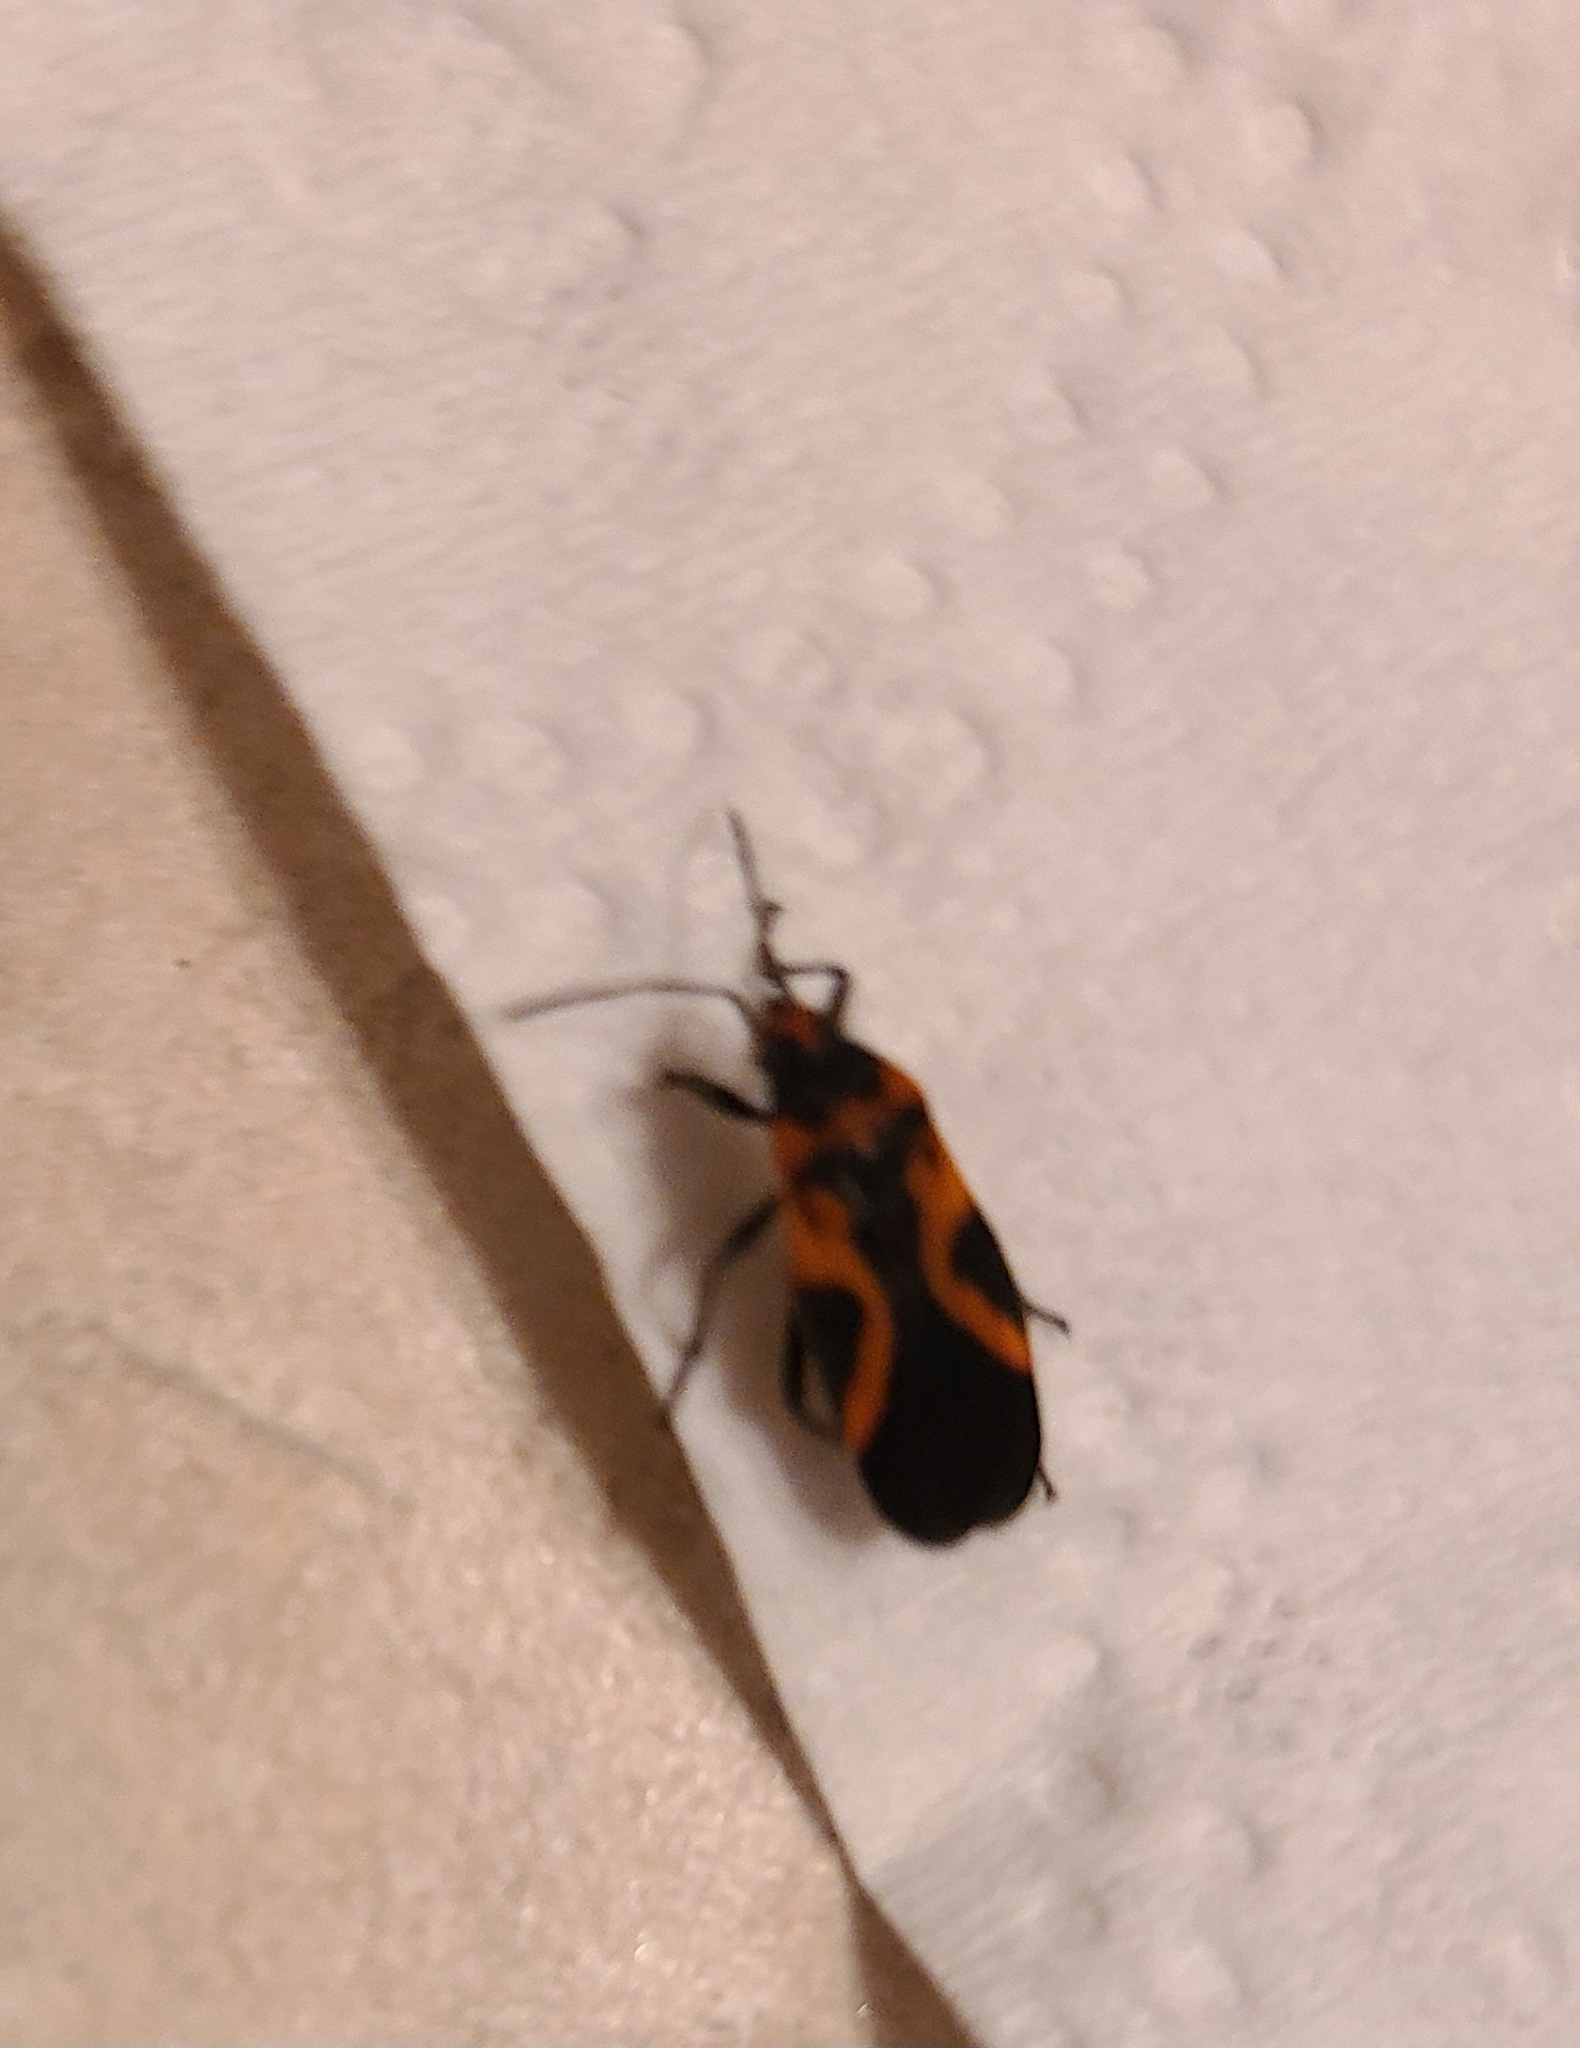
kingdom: Animalia
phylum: Arthropoda
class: Insecta
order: Hemiptera
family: Lygaeidae
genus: Lygaeus
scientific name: Lygaeus turcicus
